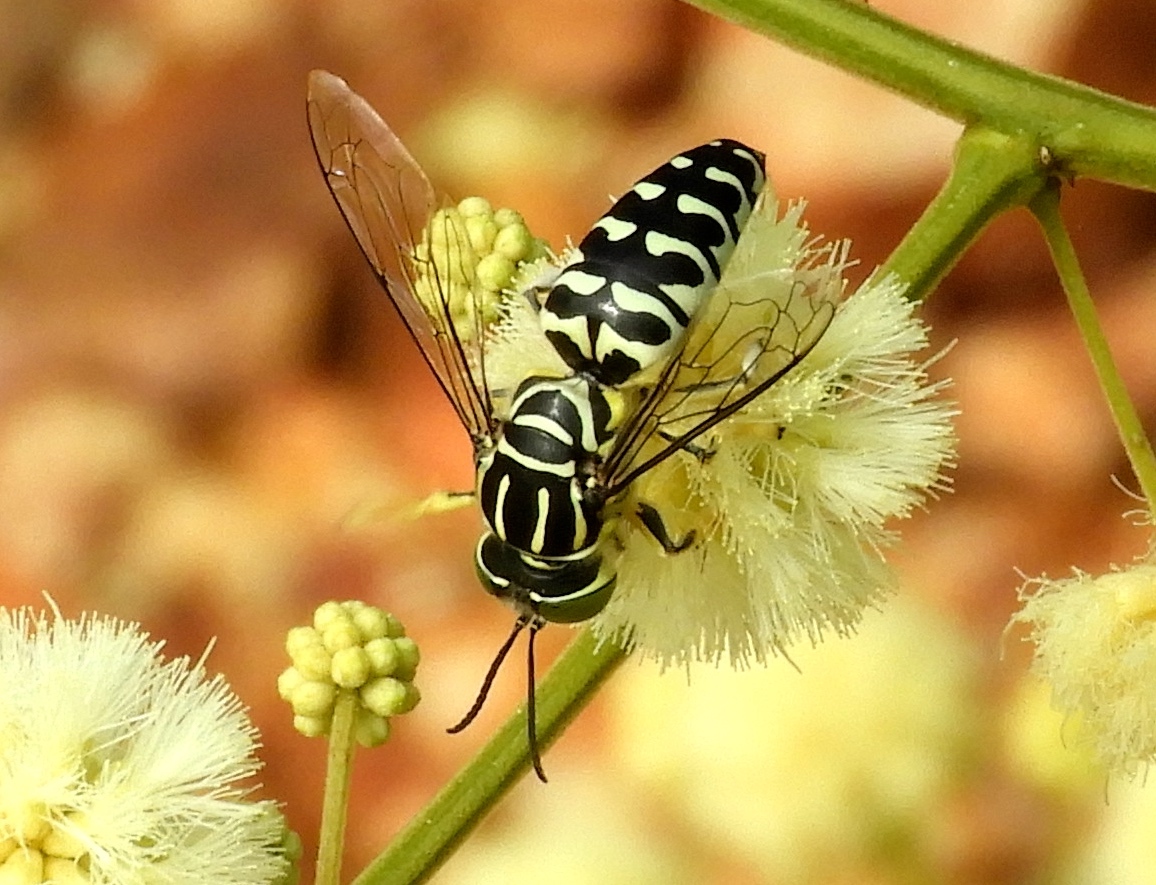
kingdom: Animalia
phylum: Arthropoda
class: Insecta
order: Hymenoptera
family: Crabronidae
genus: Stictia
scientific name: Stictia signata
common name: Sand wasp
